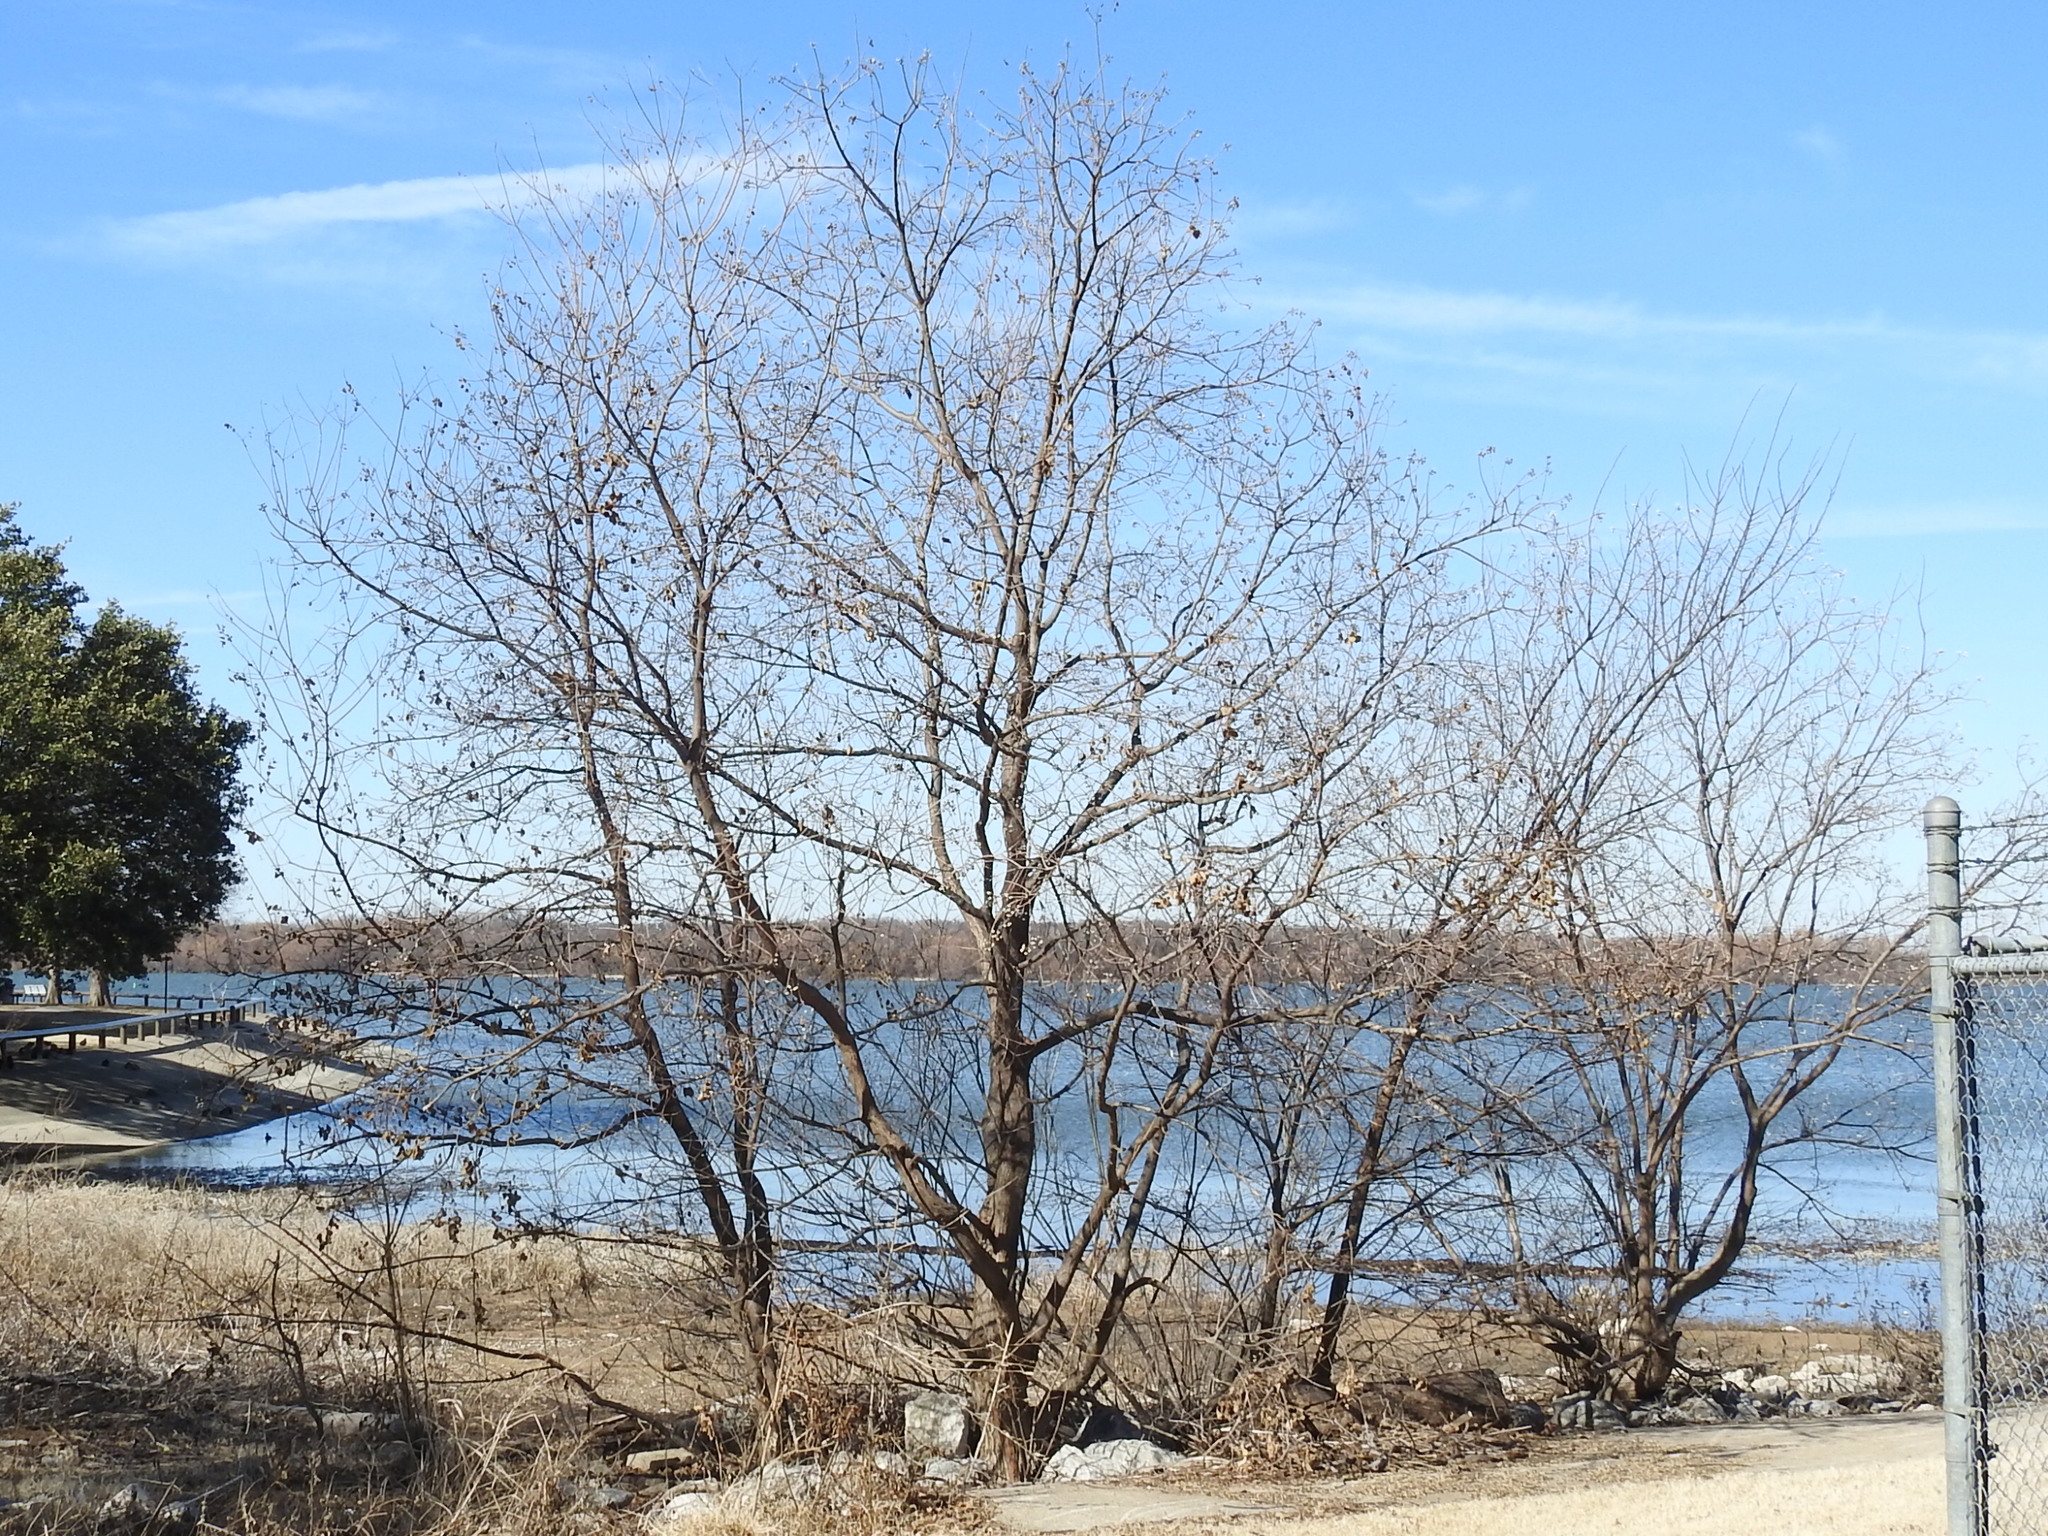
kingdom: Plantae
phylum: Tracheophyta
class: Magnoliopsida
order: Malpighiales
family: Euphorbiaceae
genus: Triadica
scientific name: Triadica sebifera
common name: Chinese tallow
